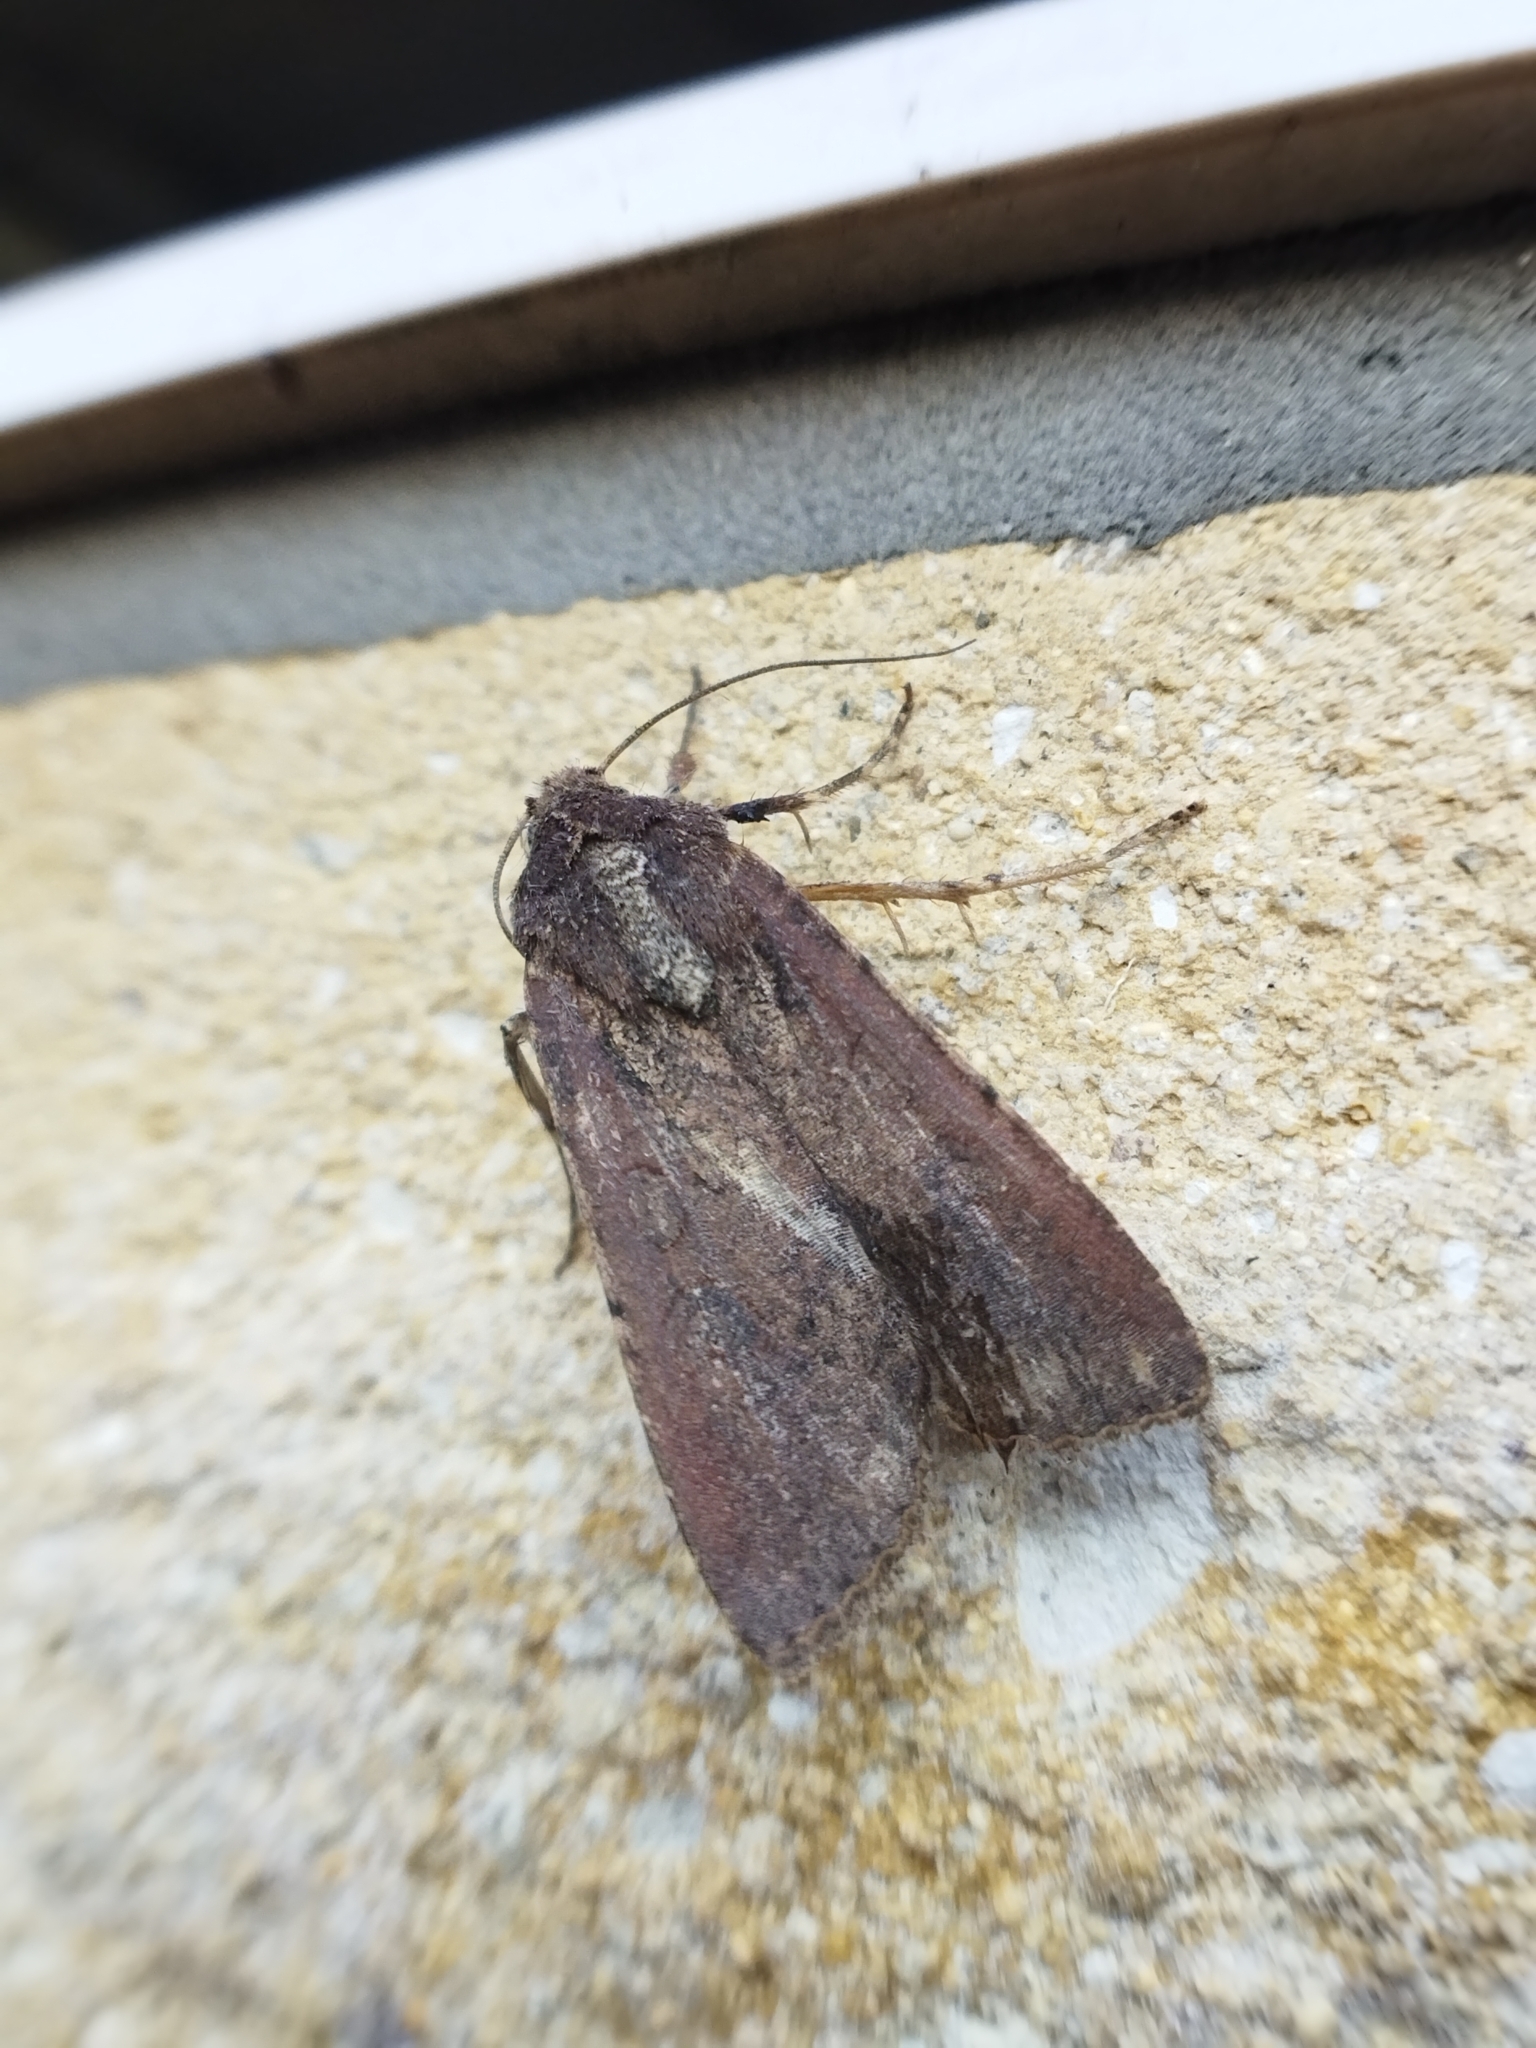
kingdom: Animalia
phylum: Arthropoda
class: Insecta
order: Lepidoptera
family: Noctuidae
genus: Peridroma
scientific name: Peridroma saucia
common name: Pearly underwing
